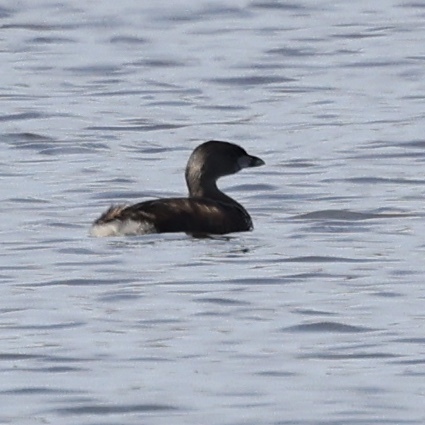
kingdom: Animalia
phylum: Chordata
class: Aves
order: Podicipediformes
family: Podicipedidae
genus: Podilymbus
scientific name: Podilymbus podiceps
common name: Pied-billed grebe
